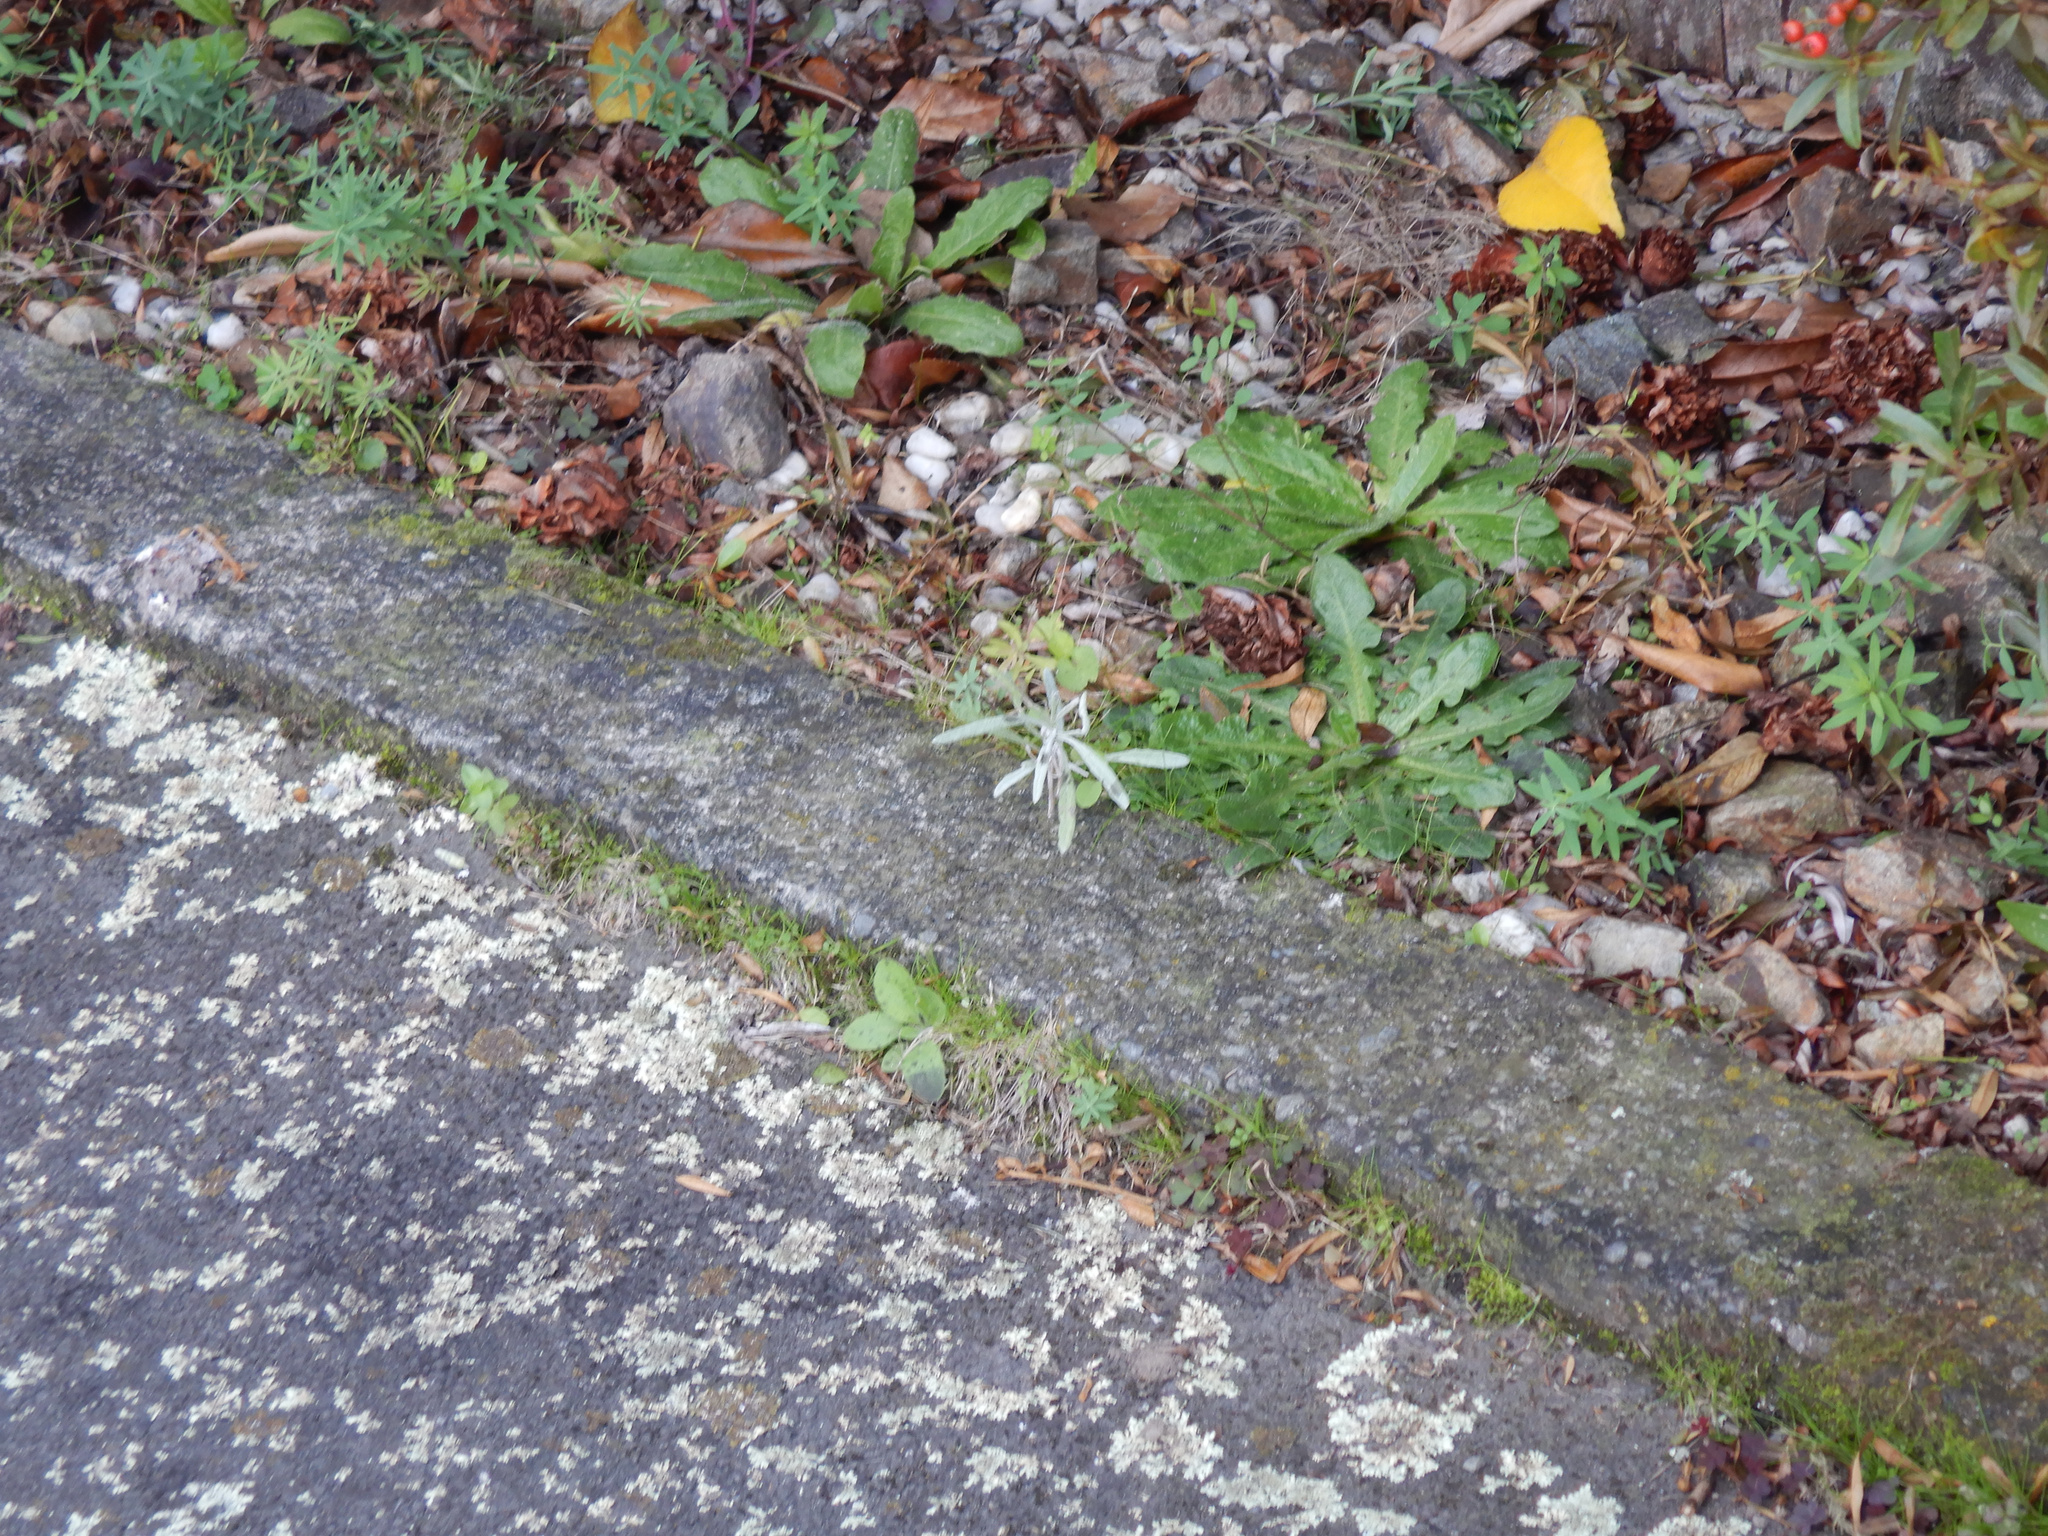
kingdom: Plantae
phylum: Tracheophyta
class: Magnoliopsida
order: Asterales
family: Asteraceae
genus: Senecio
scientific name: Senecio quadridentatus
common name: Cotton fireweed
